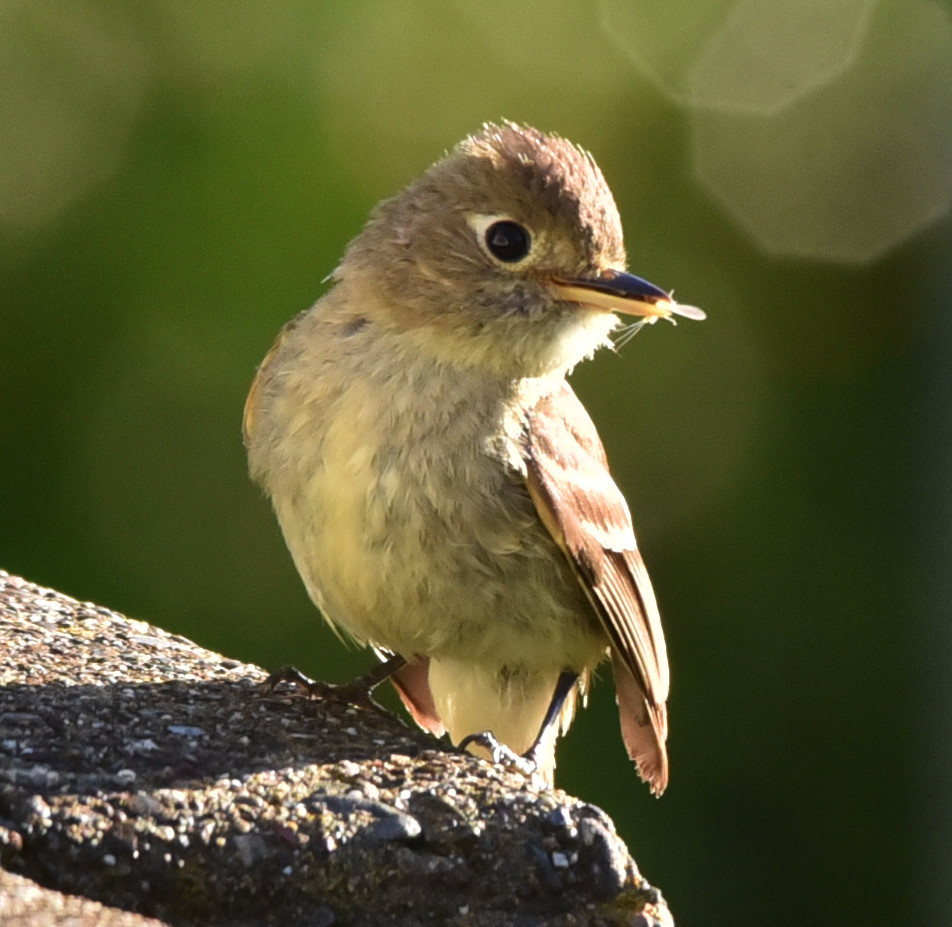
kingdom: Animalia
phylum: Chordata
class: Aves
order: Passeriformes
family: Tyrannidae
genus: Empidonax
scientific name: Empidonax difficilis
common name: Pacific-slope flycatcher
